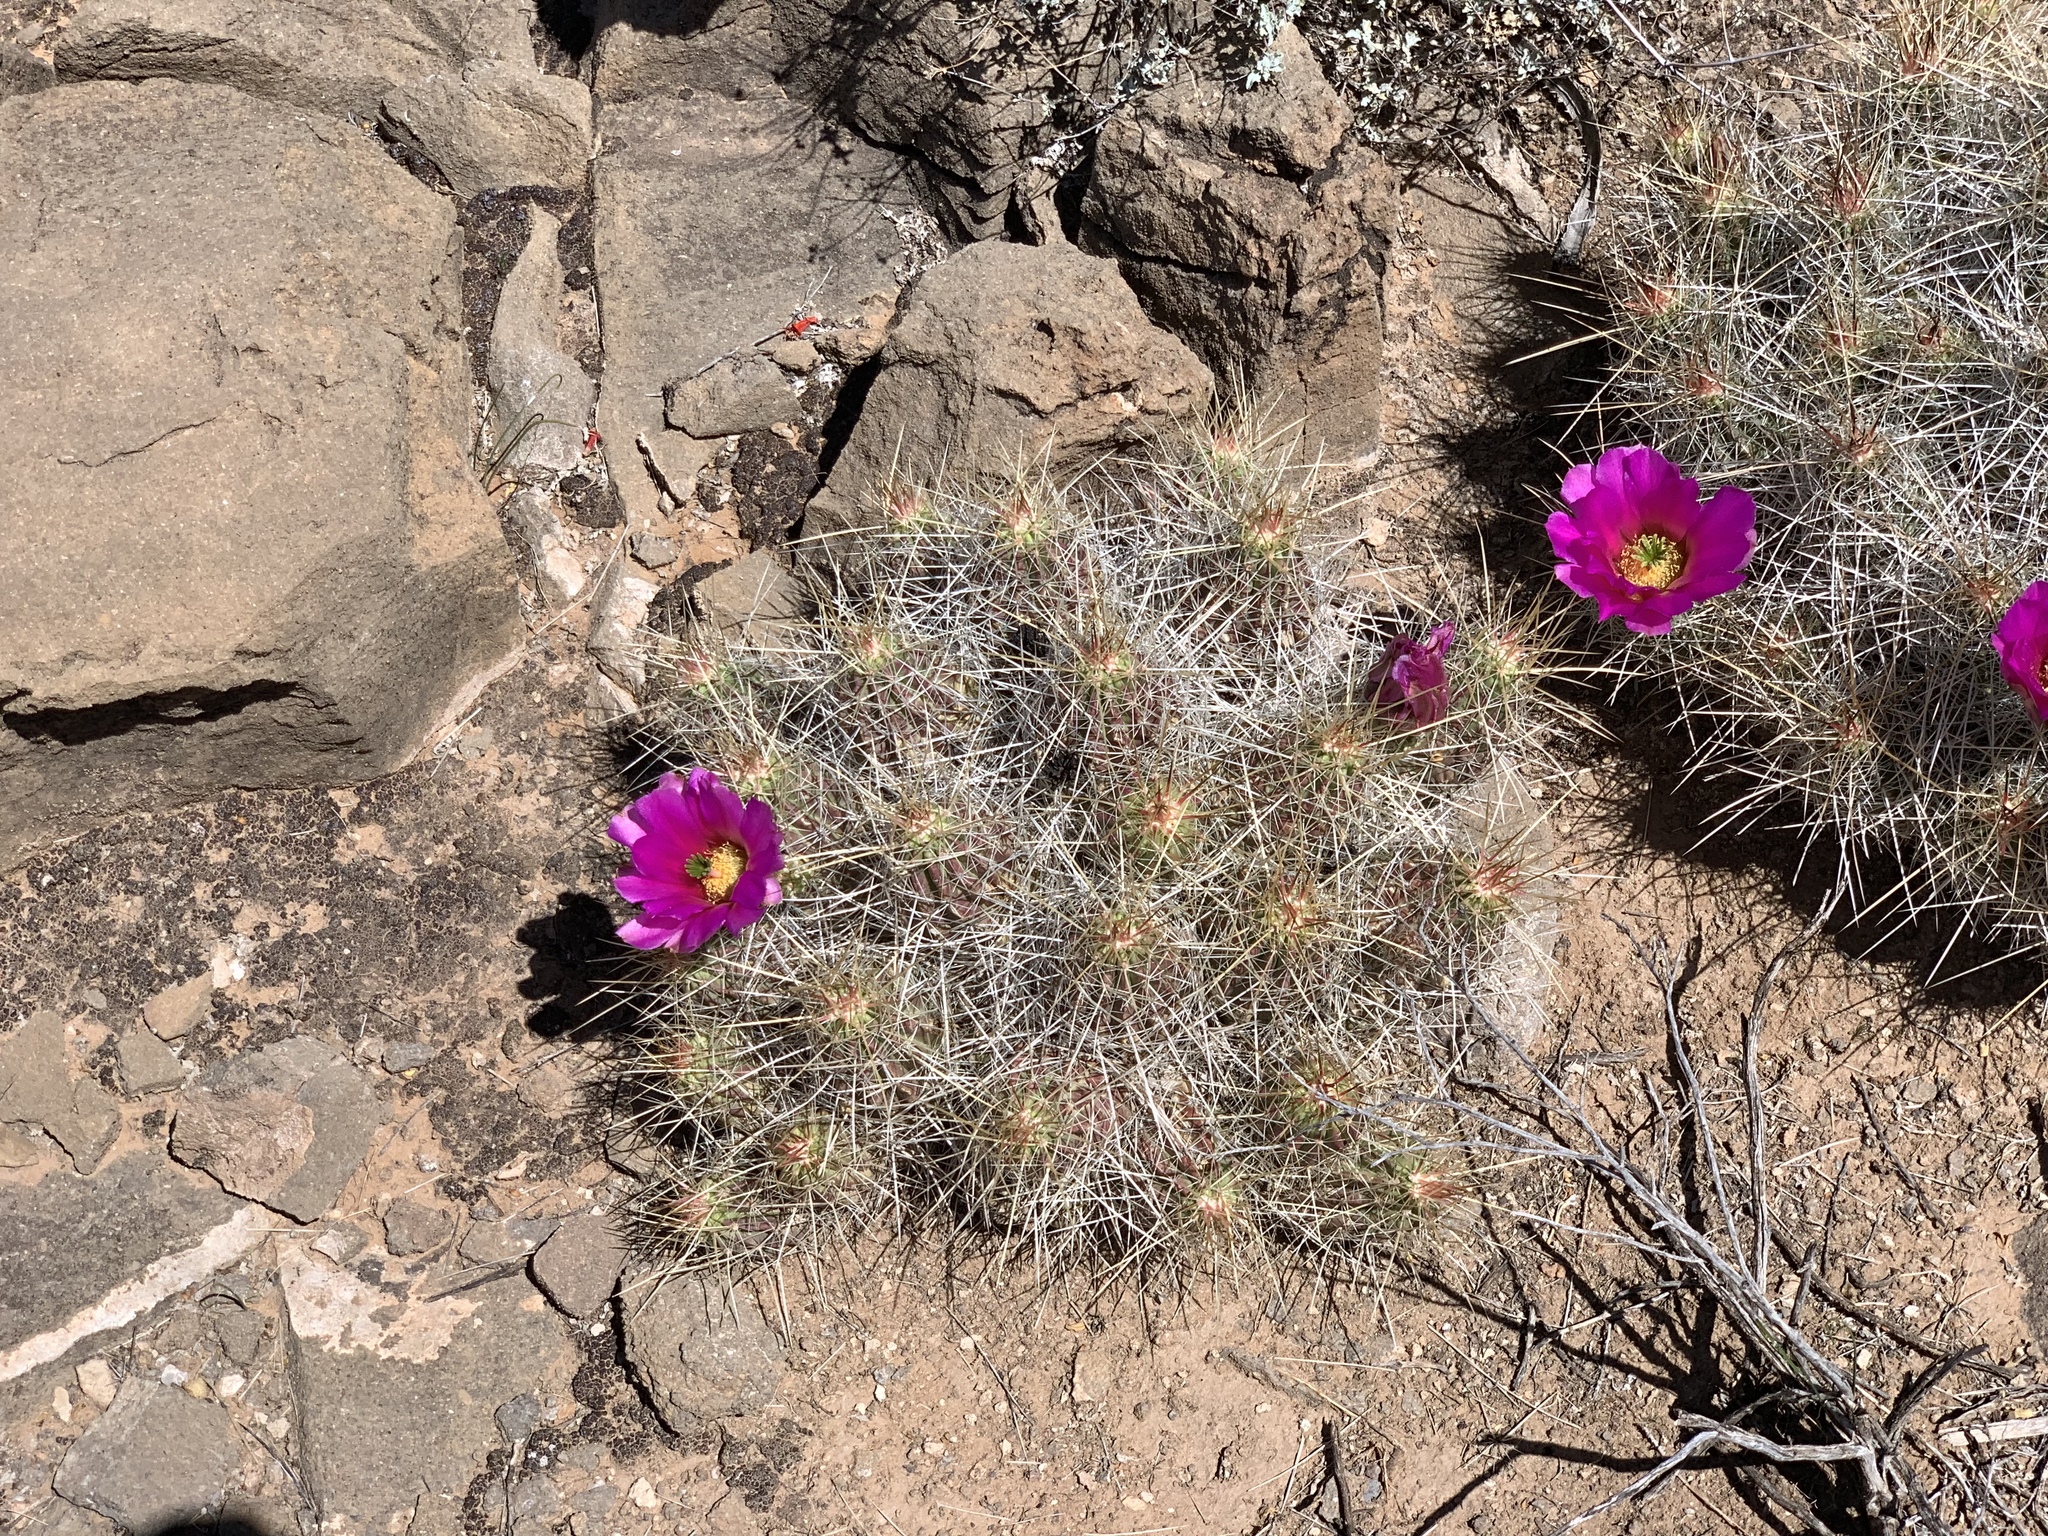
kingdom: Plantae
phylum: Tracheophyta
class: Magnoliopsida
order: Caryophyllales
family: Cactaceae
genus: Echinocereus
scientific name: Echinocereus stramineus
